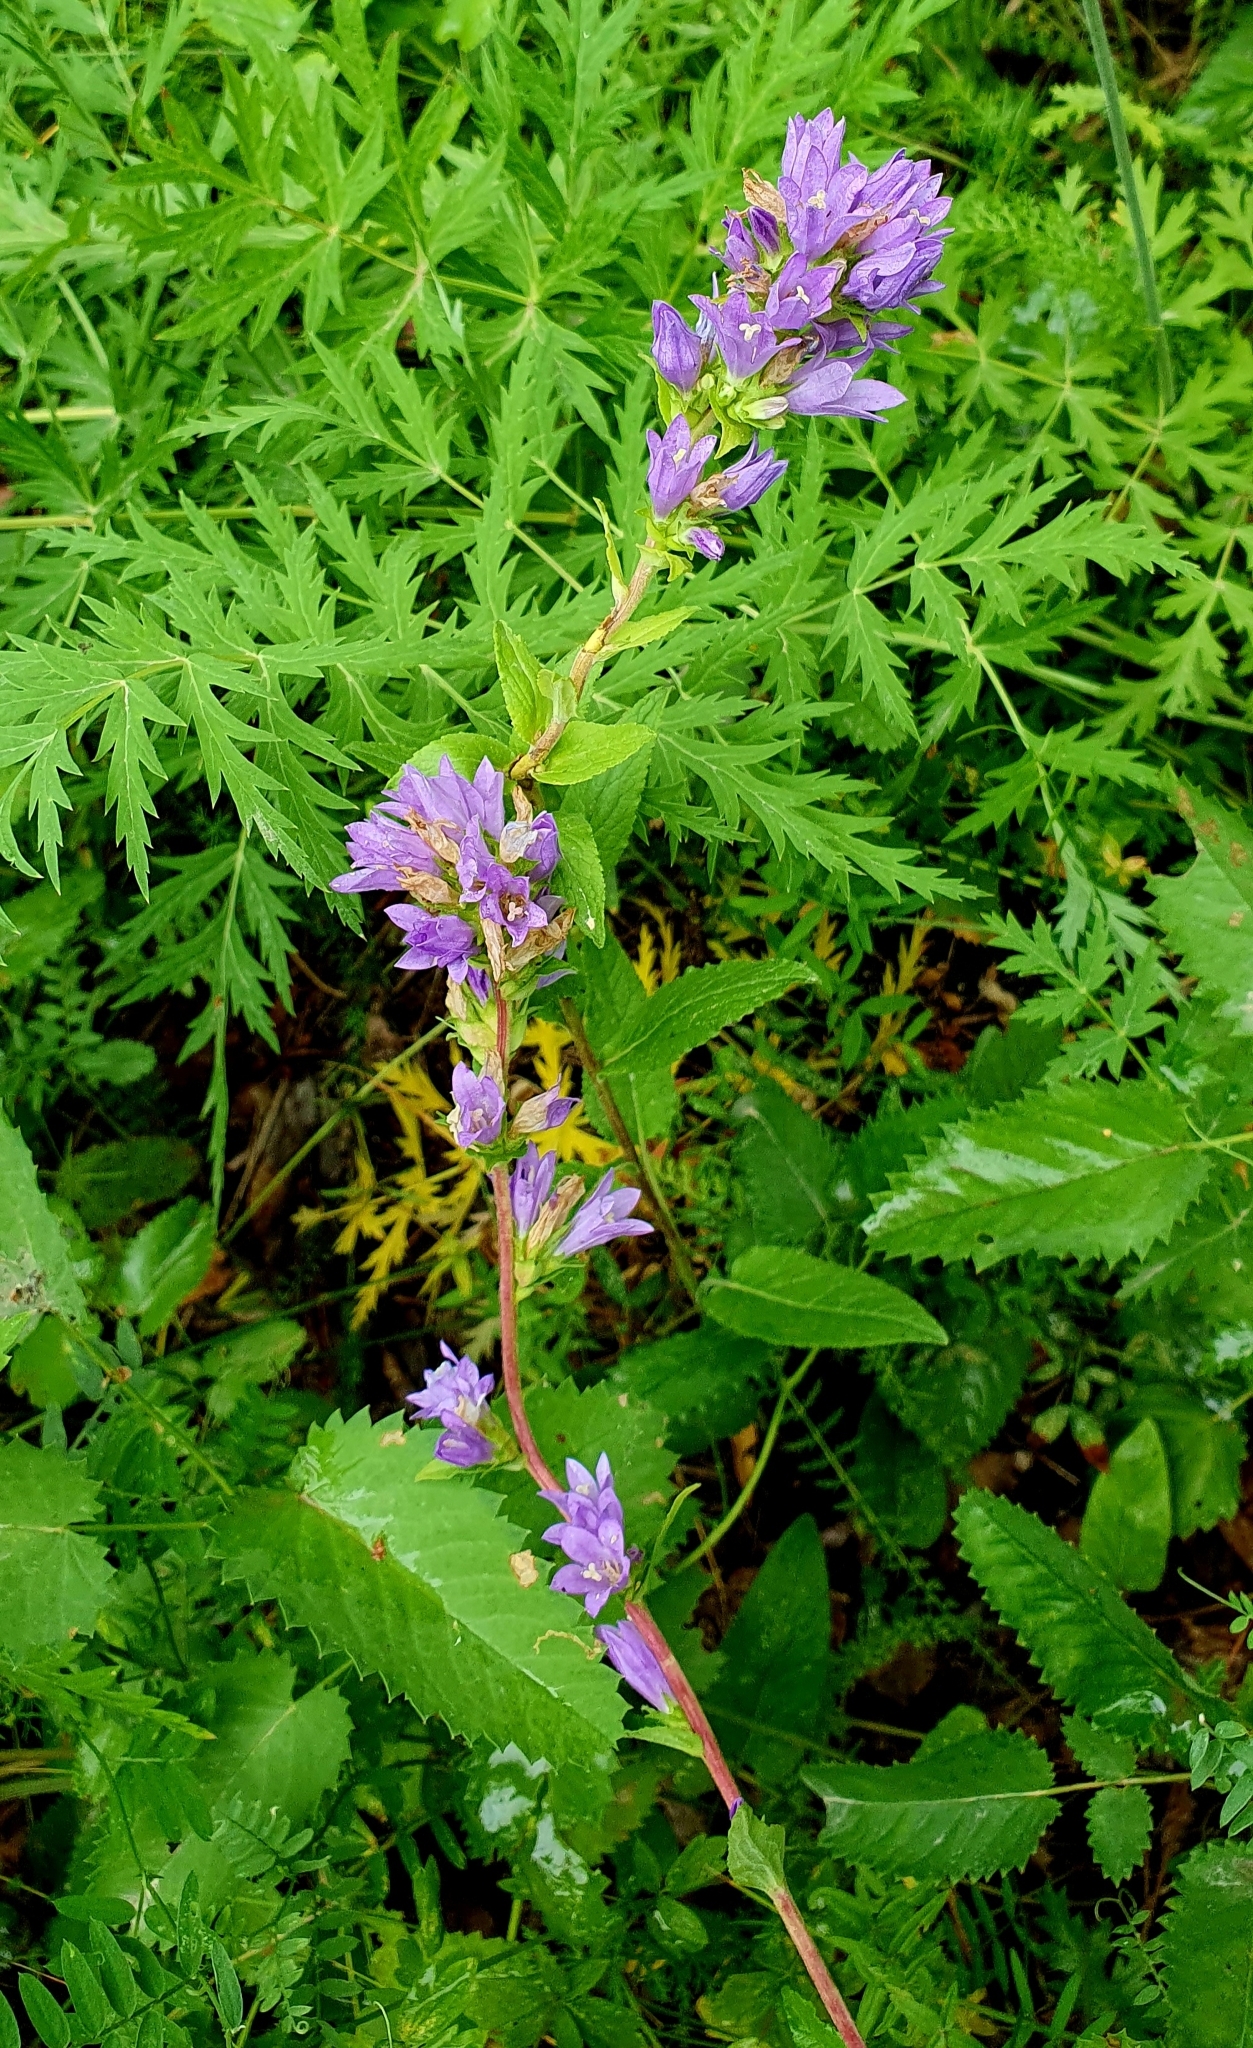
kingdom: Plantae
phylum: Tracheophyta
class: Magnoliopsida
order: Asterales
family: Campanulaceae
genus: Campanula
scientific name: Campanula glomerata
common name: Clustered bellflower
